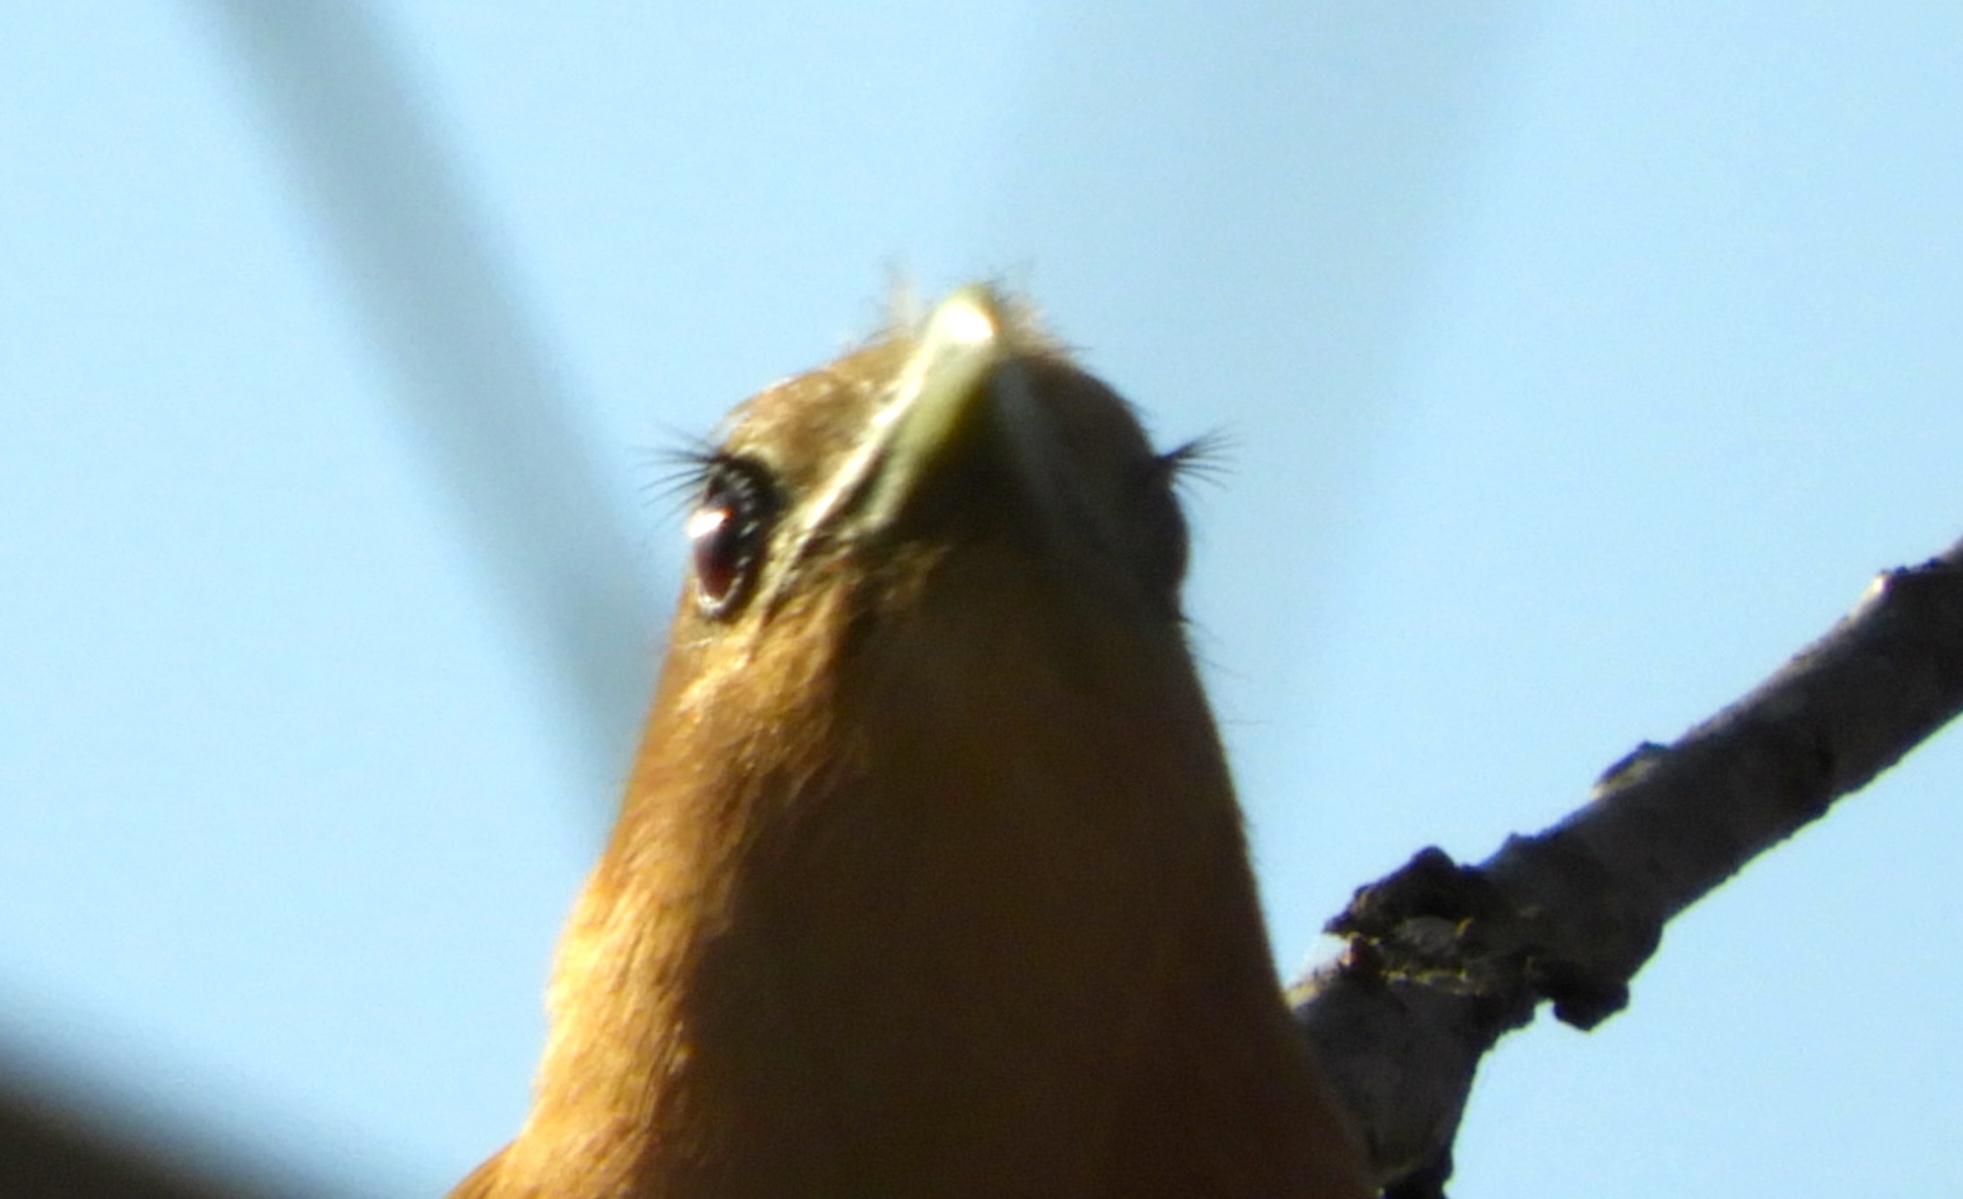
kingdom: Animalia
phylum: Chordata
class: Aves
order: Cuculiformes
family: Cuculidae
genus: Piaya
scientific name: Piaya cayana
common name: Squirrel cuckoo
